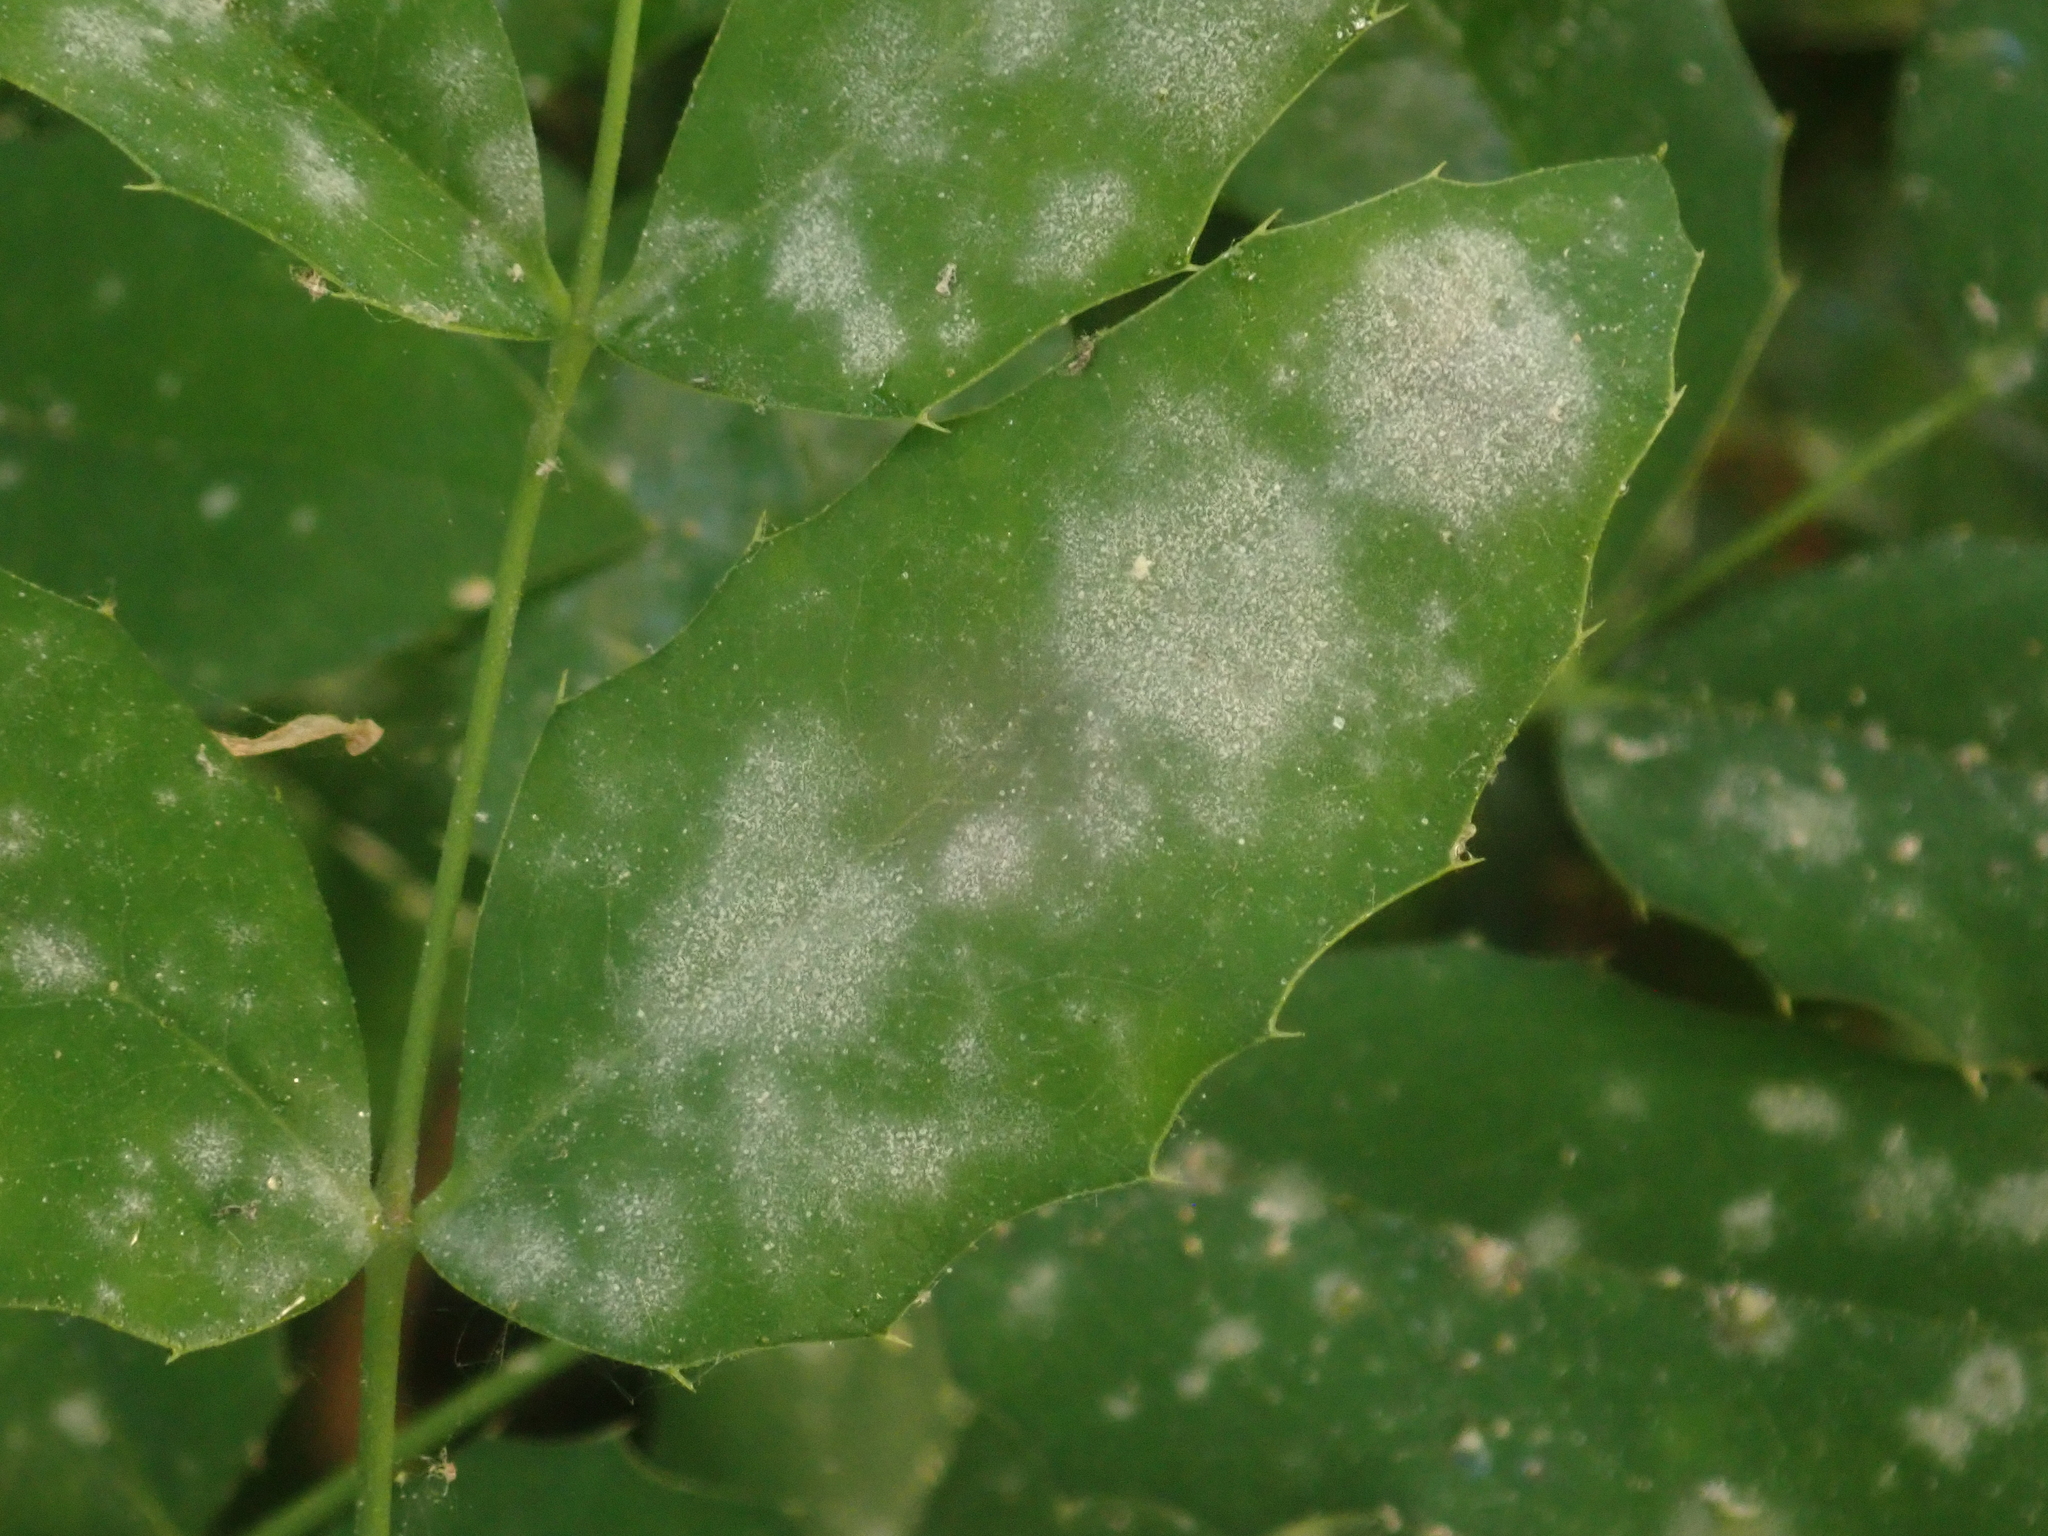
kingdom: Fungi
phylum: Ascomycota
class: Leotiomycetes
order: Helotiales
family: Erysiphaceae
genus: Erysiphe
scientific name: Erysiphe berberidis
